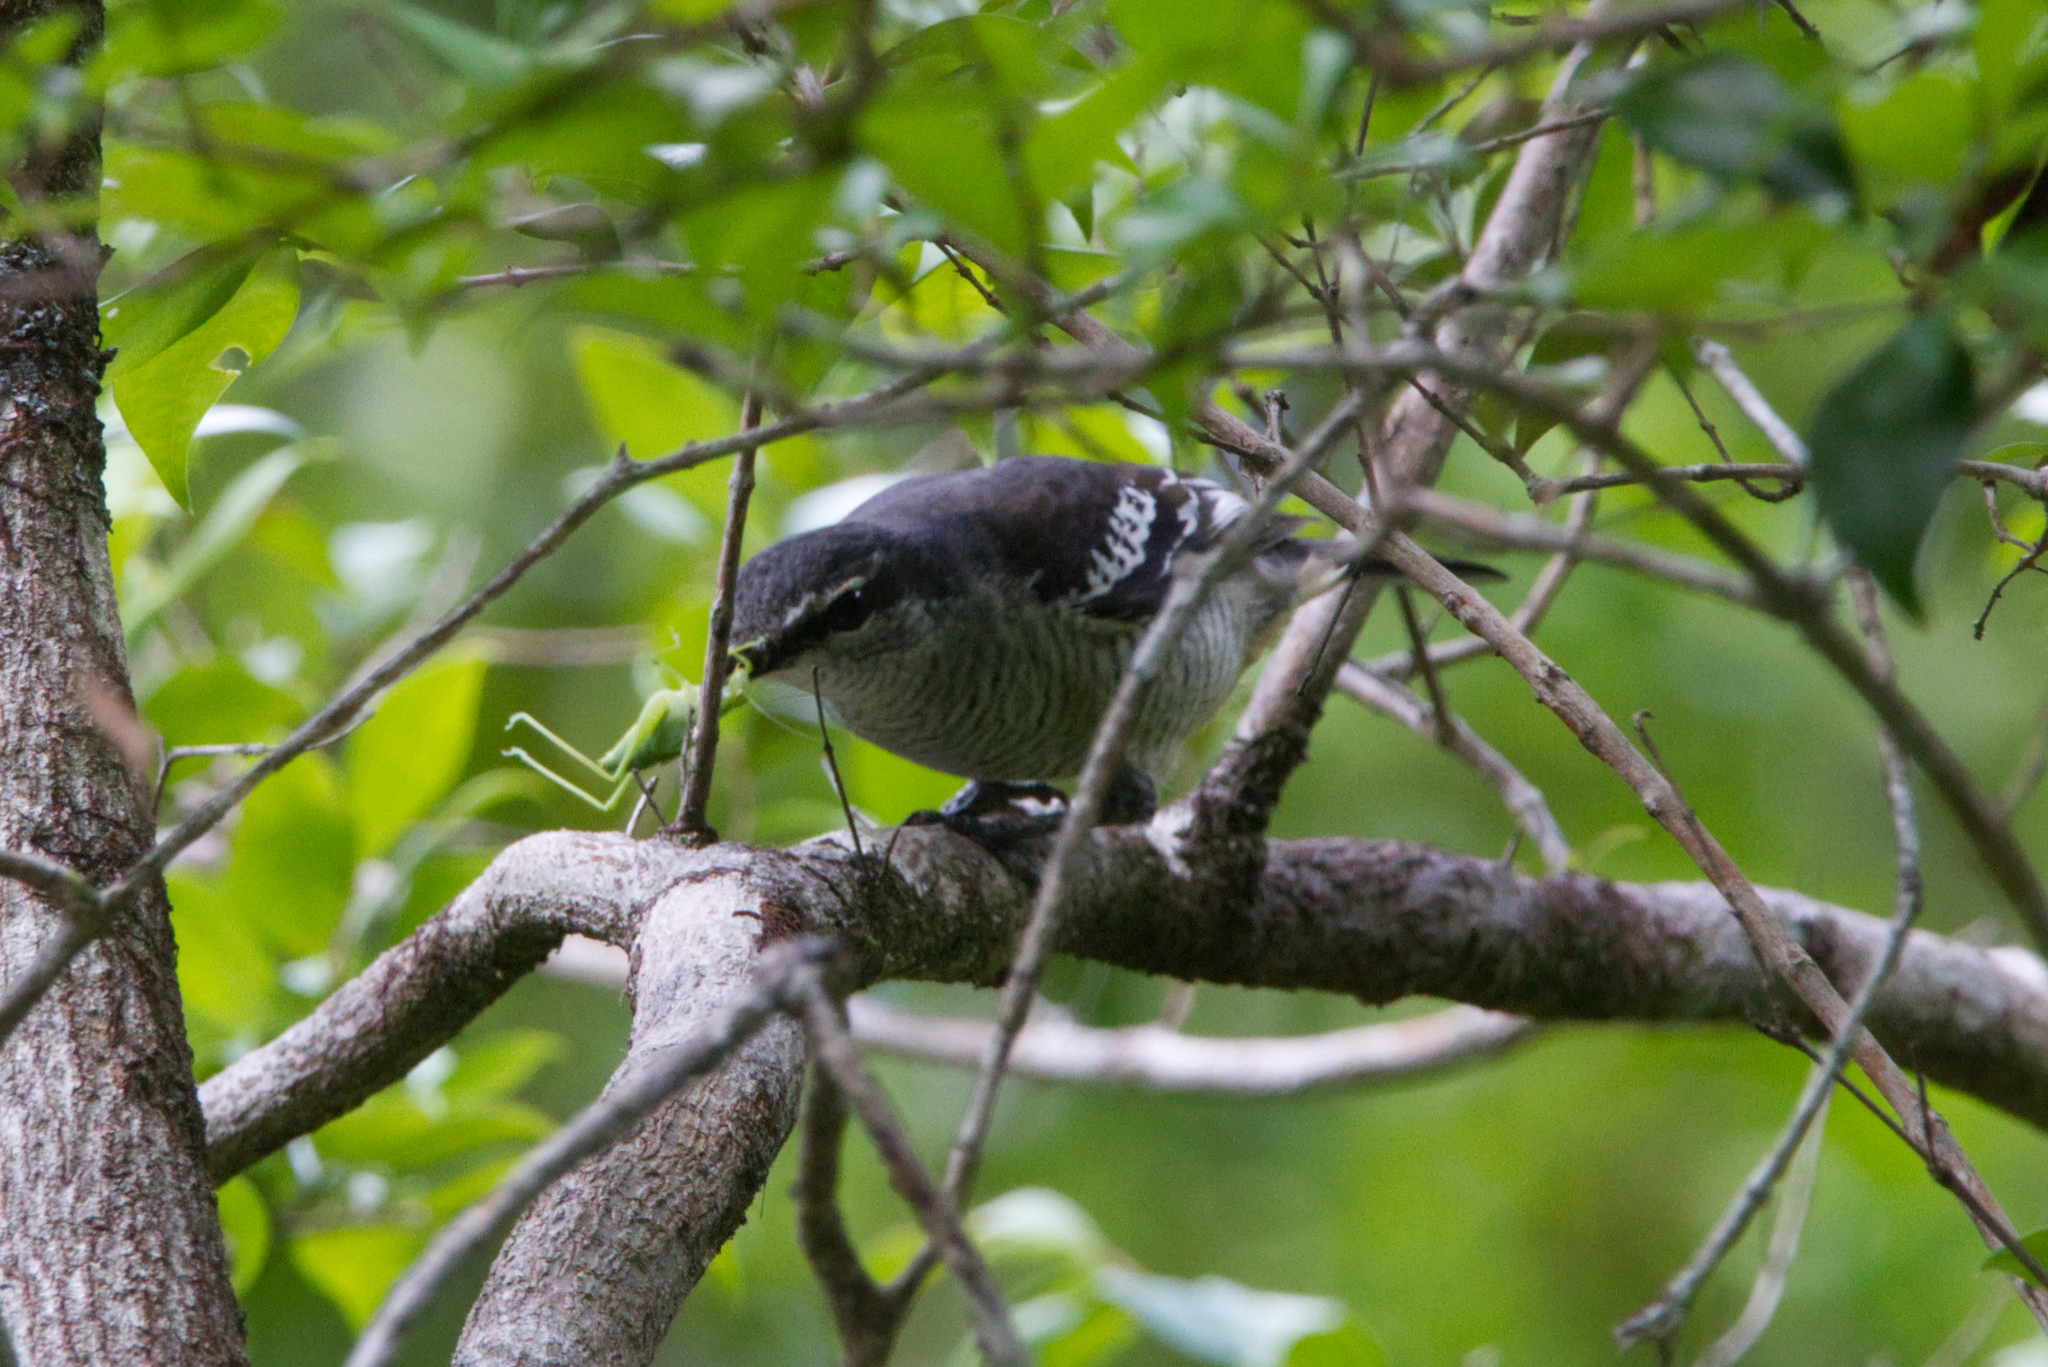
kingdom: Animalia
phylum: Chordata
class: Aves
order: Passeriformes
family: Campephagidae
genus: Lalage
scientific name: Lalage leucomela
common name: Varied triller
